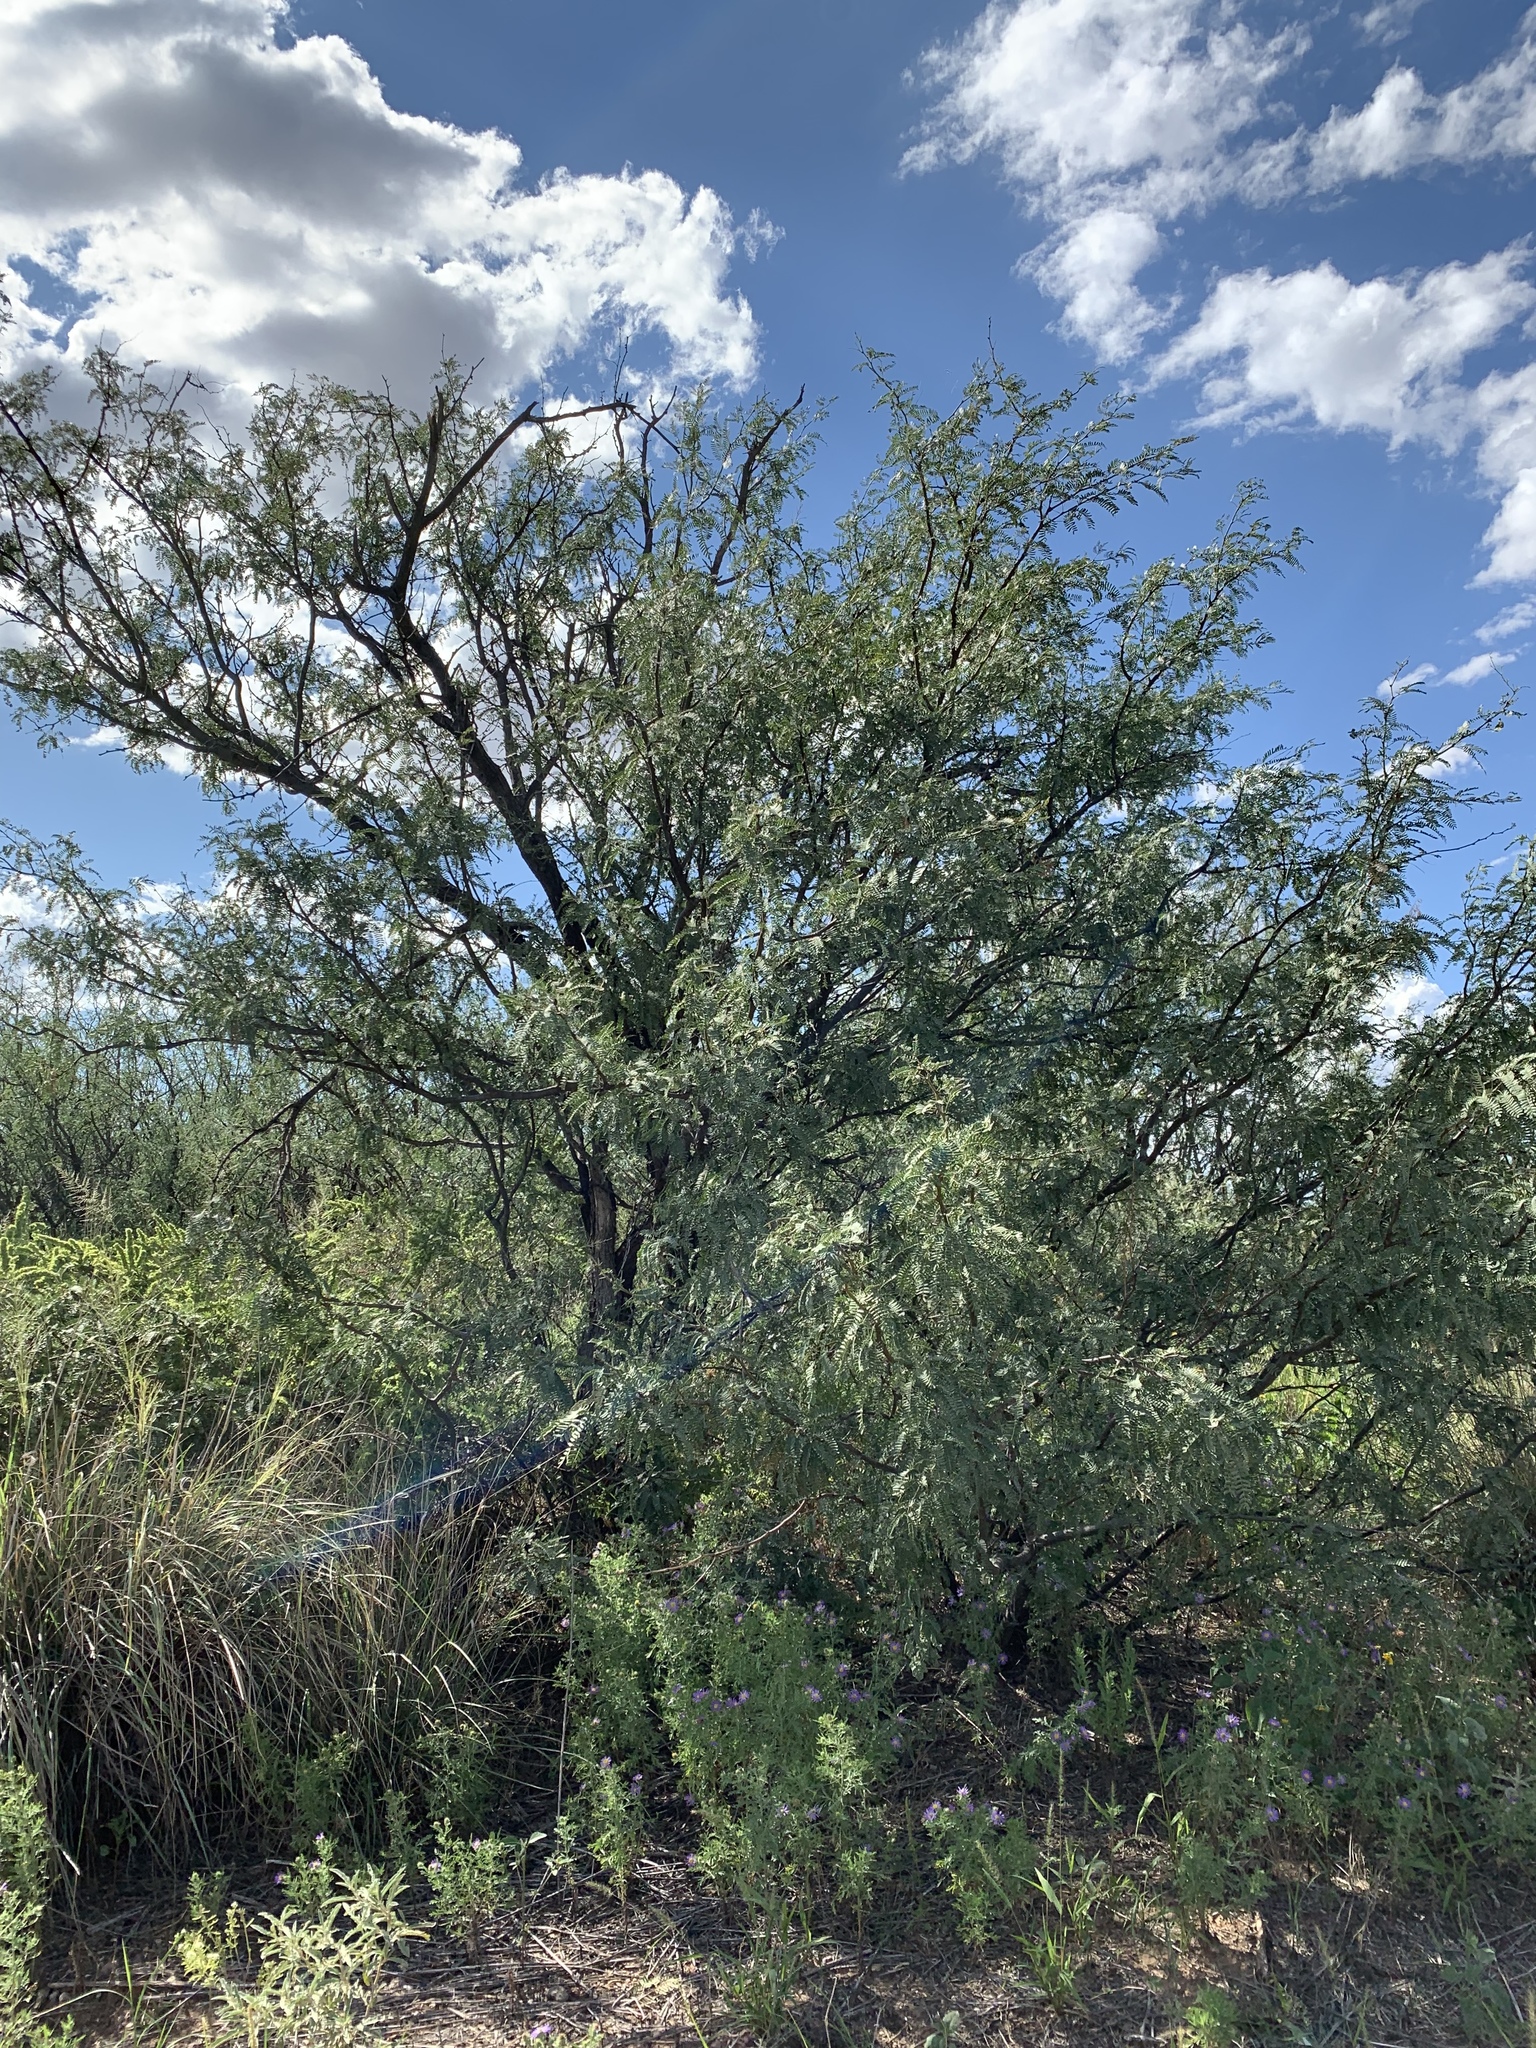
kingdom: Plantae
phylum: Tracheophyta
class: Magnoliopsida
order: Fabales
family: Fabaceae
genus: Prosopis
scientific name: Prosopis velutina
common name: Velvet mesquite
